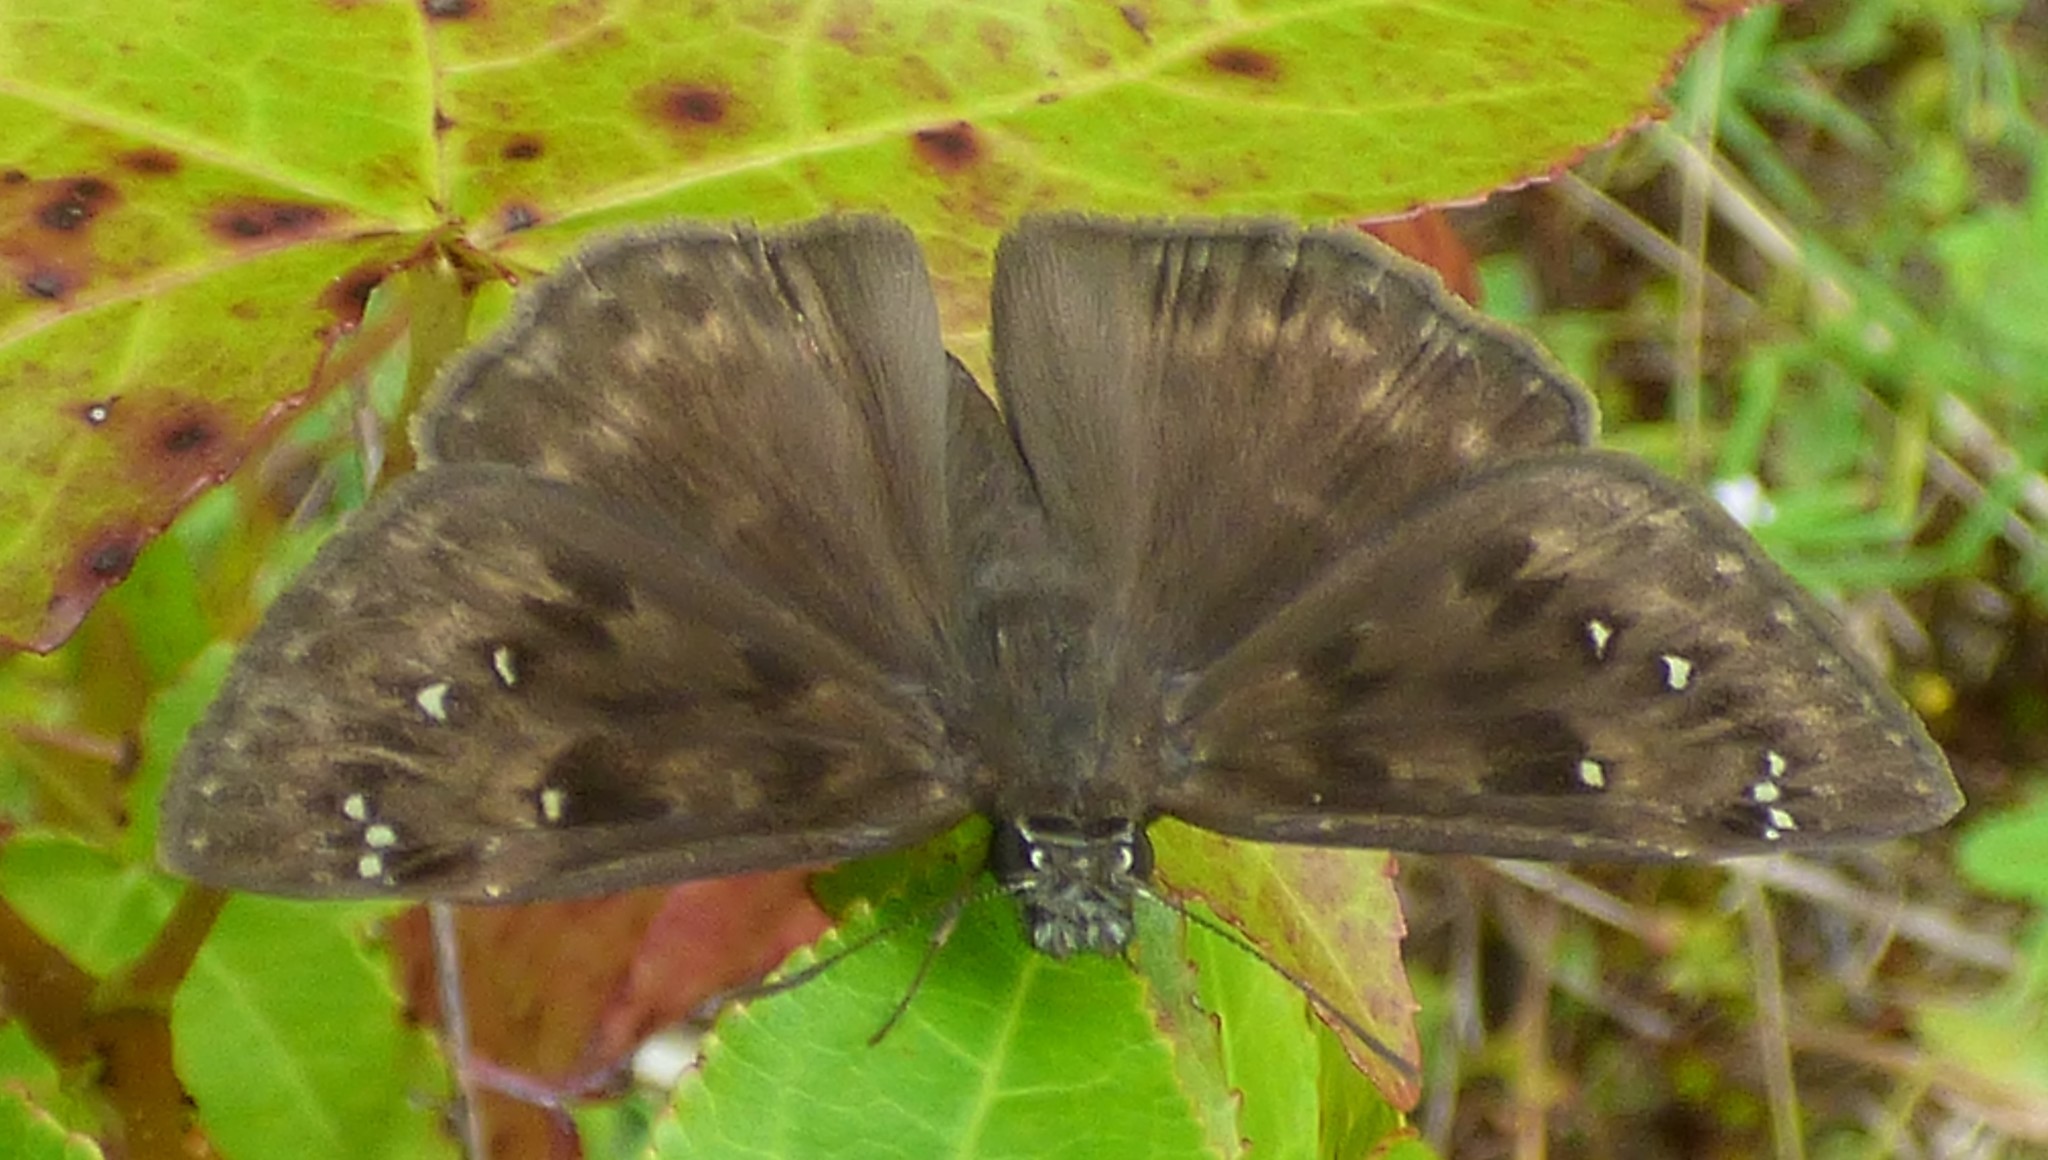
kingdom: Animalia
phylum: Arthropoda
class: Insecta
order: Lepidoptera
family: Hesperiidae
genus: Erynnis
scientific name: Erynnis horatius
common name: Horace's duskywing
